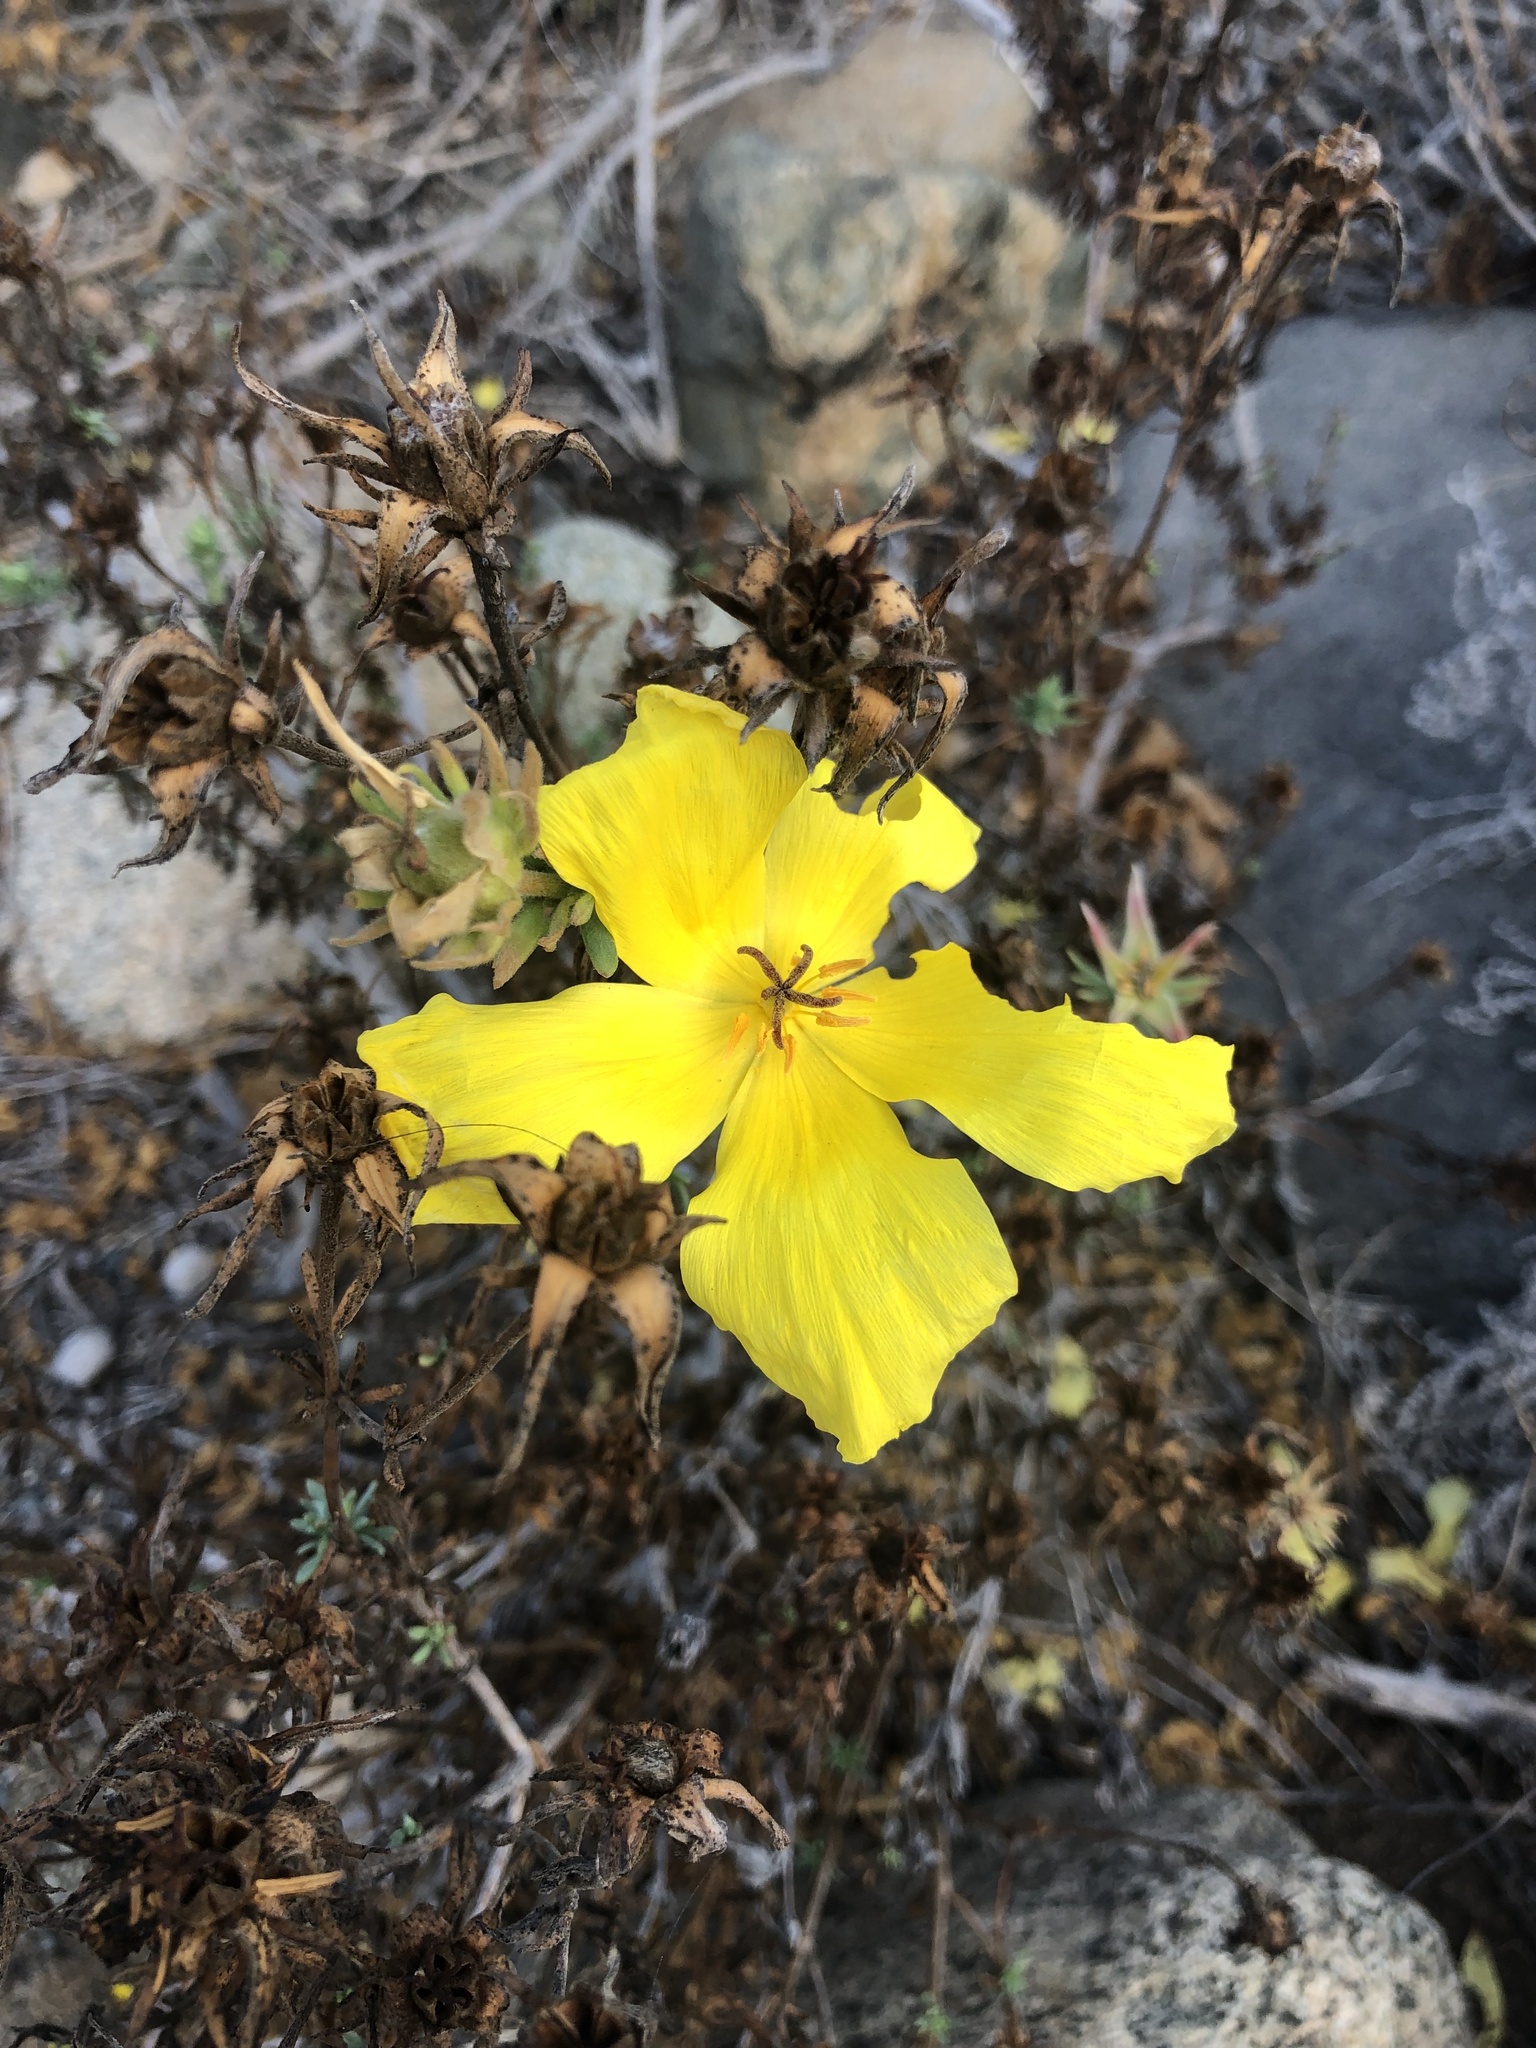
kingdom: Plantae
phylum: Tracheophyta
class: Magnoliopsida
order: Geraniales
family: Vivianiaceae
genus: Balbisia
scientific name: Balbisia peduncularis
